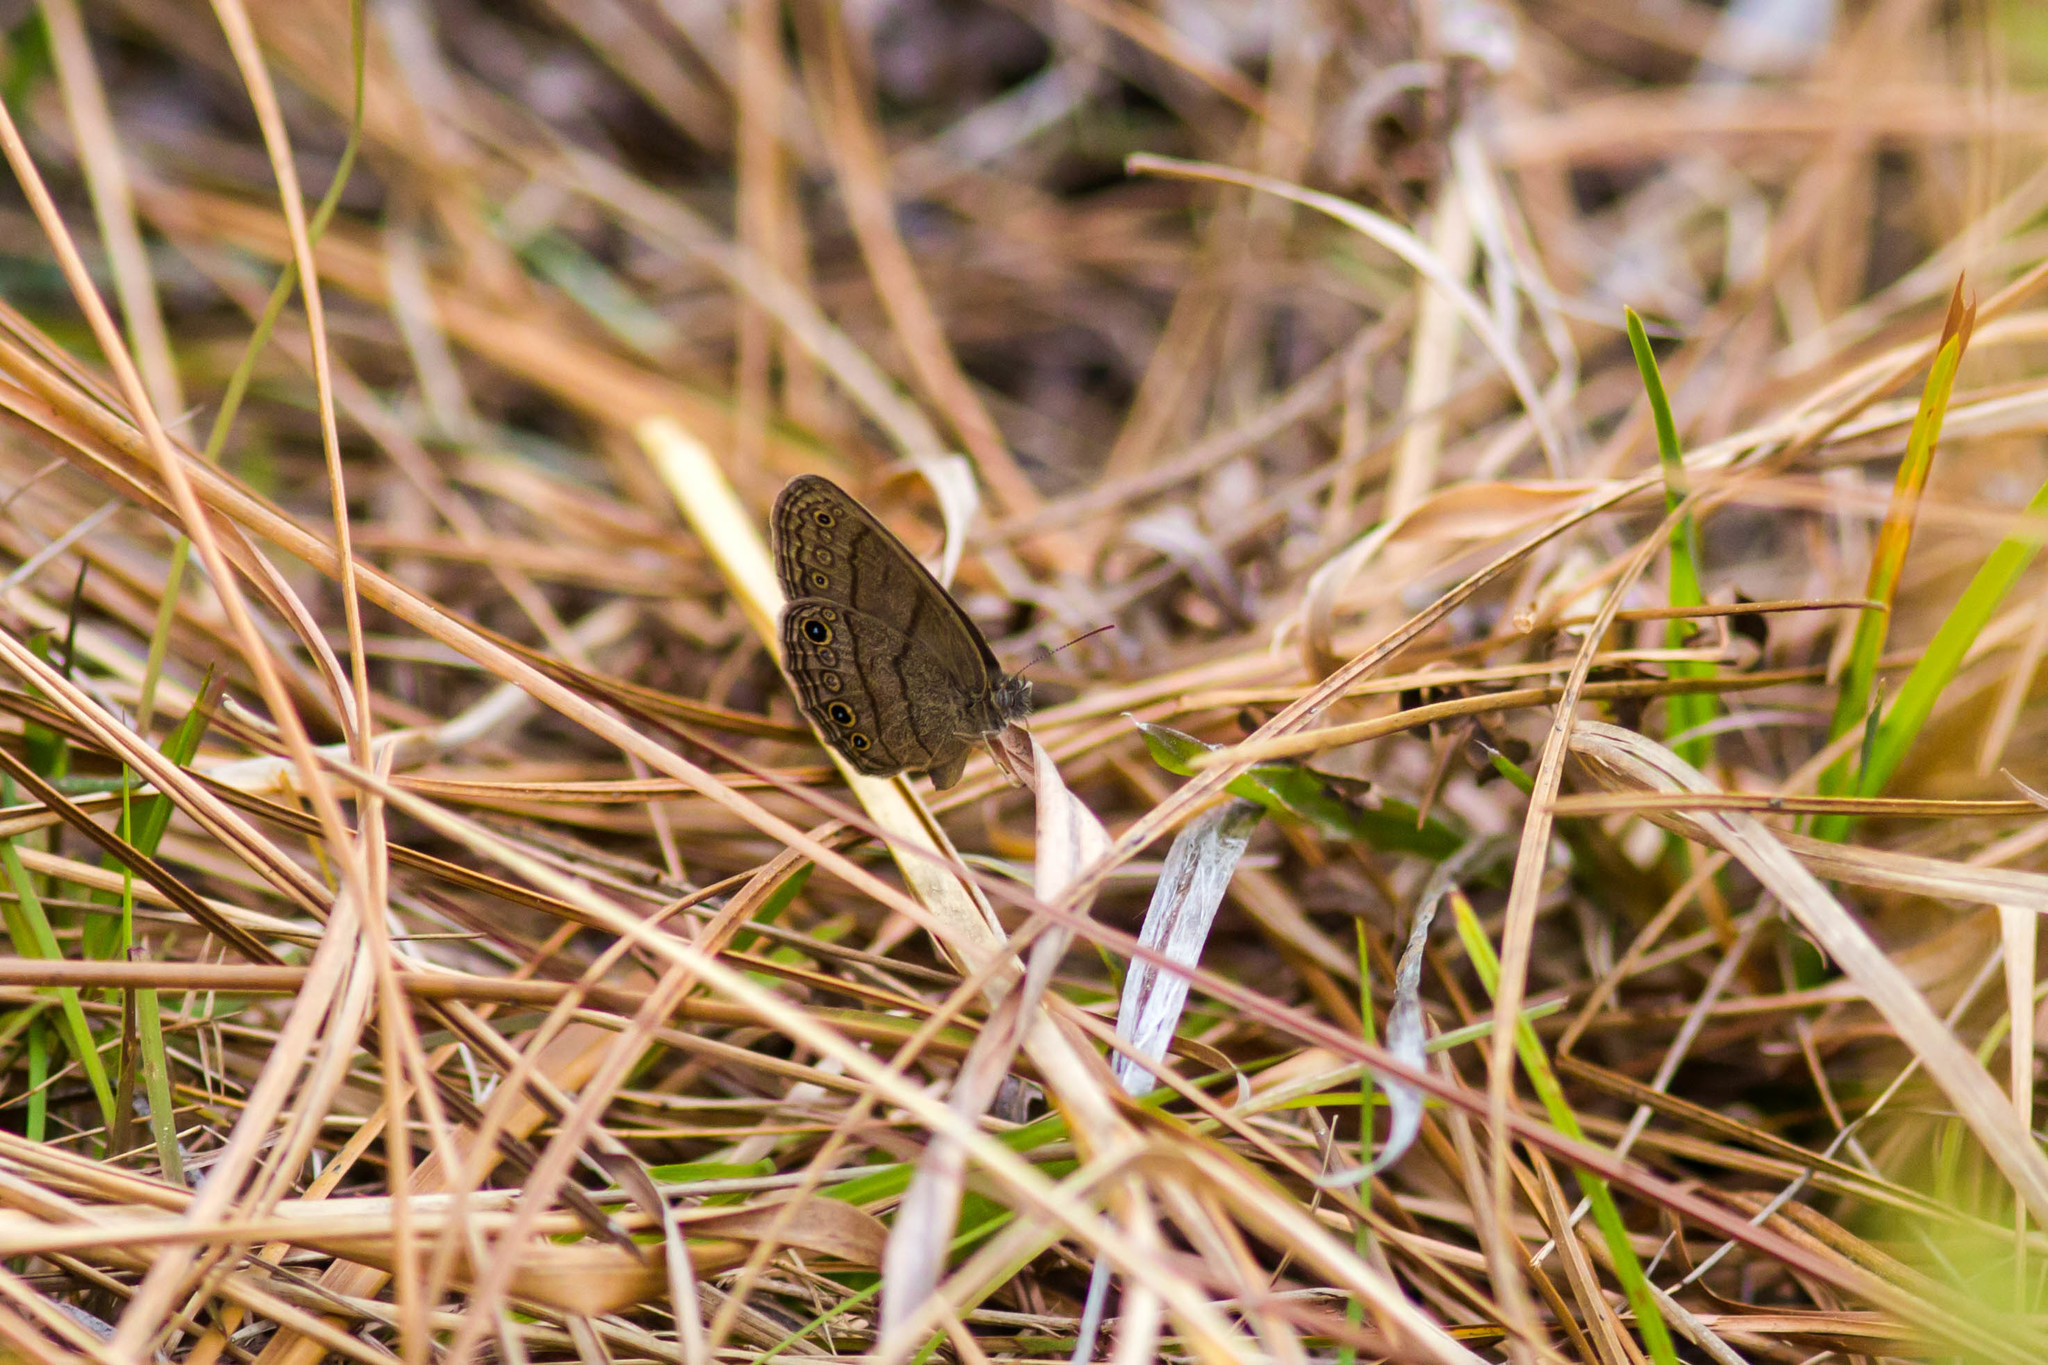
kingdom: Animalia
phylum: Arthropoda
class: Insecta
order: Lepidoptera
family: Nymphalidae
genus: Hermeuptychia
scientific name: Hermeuptychia hermes
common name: Hermes satyr
